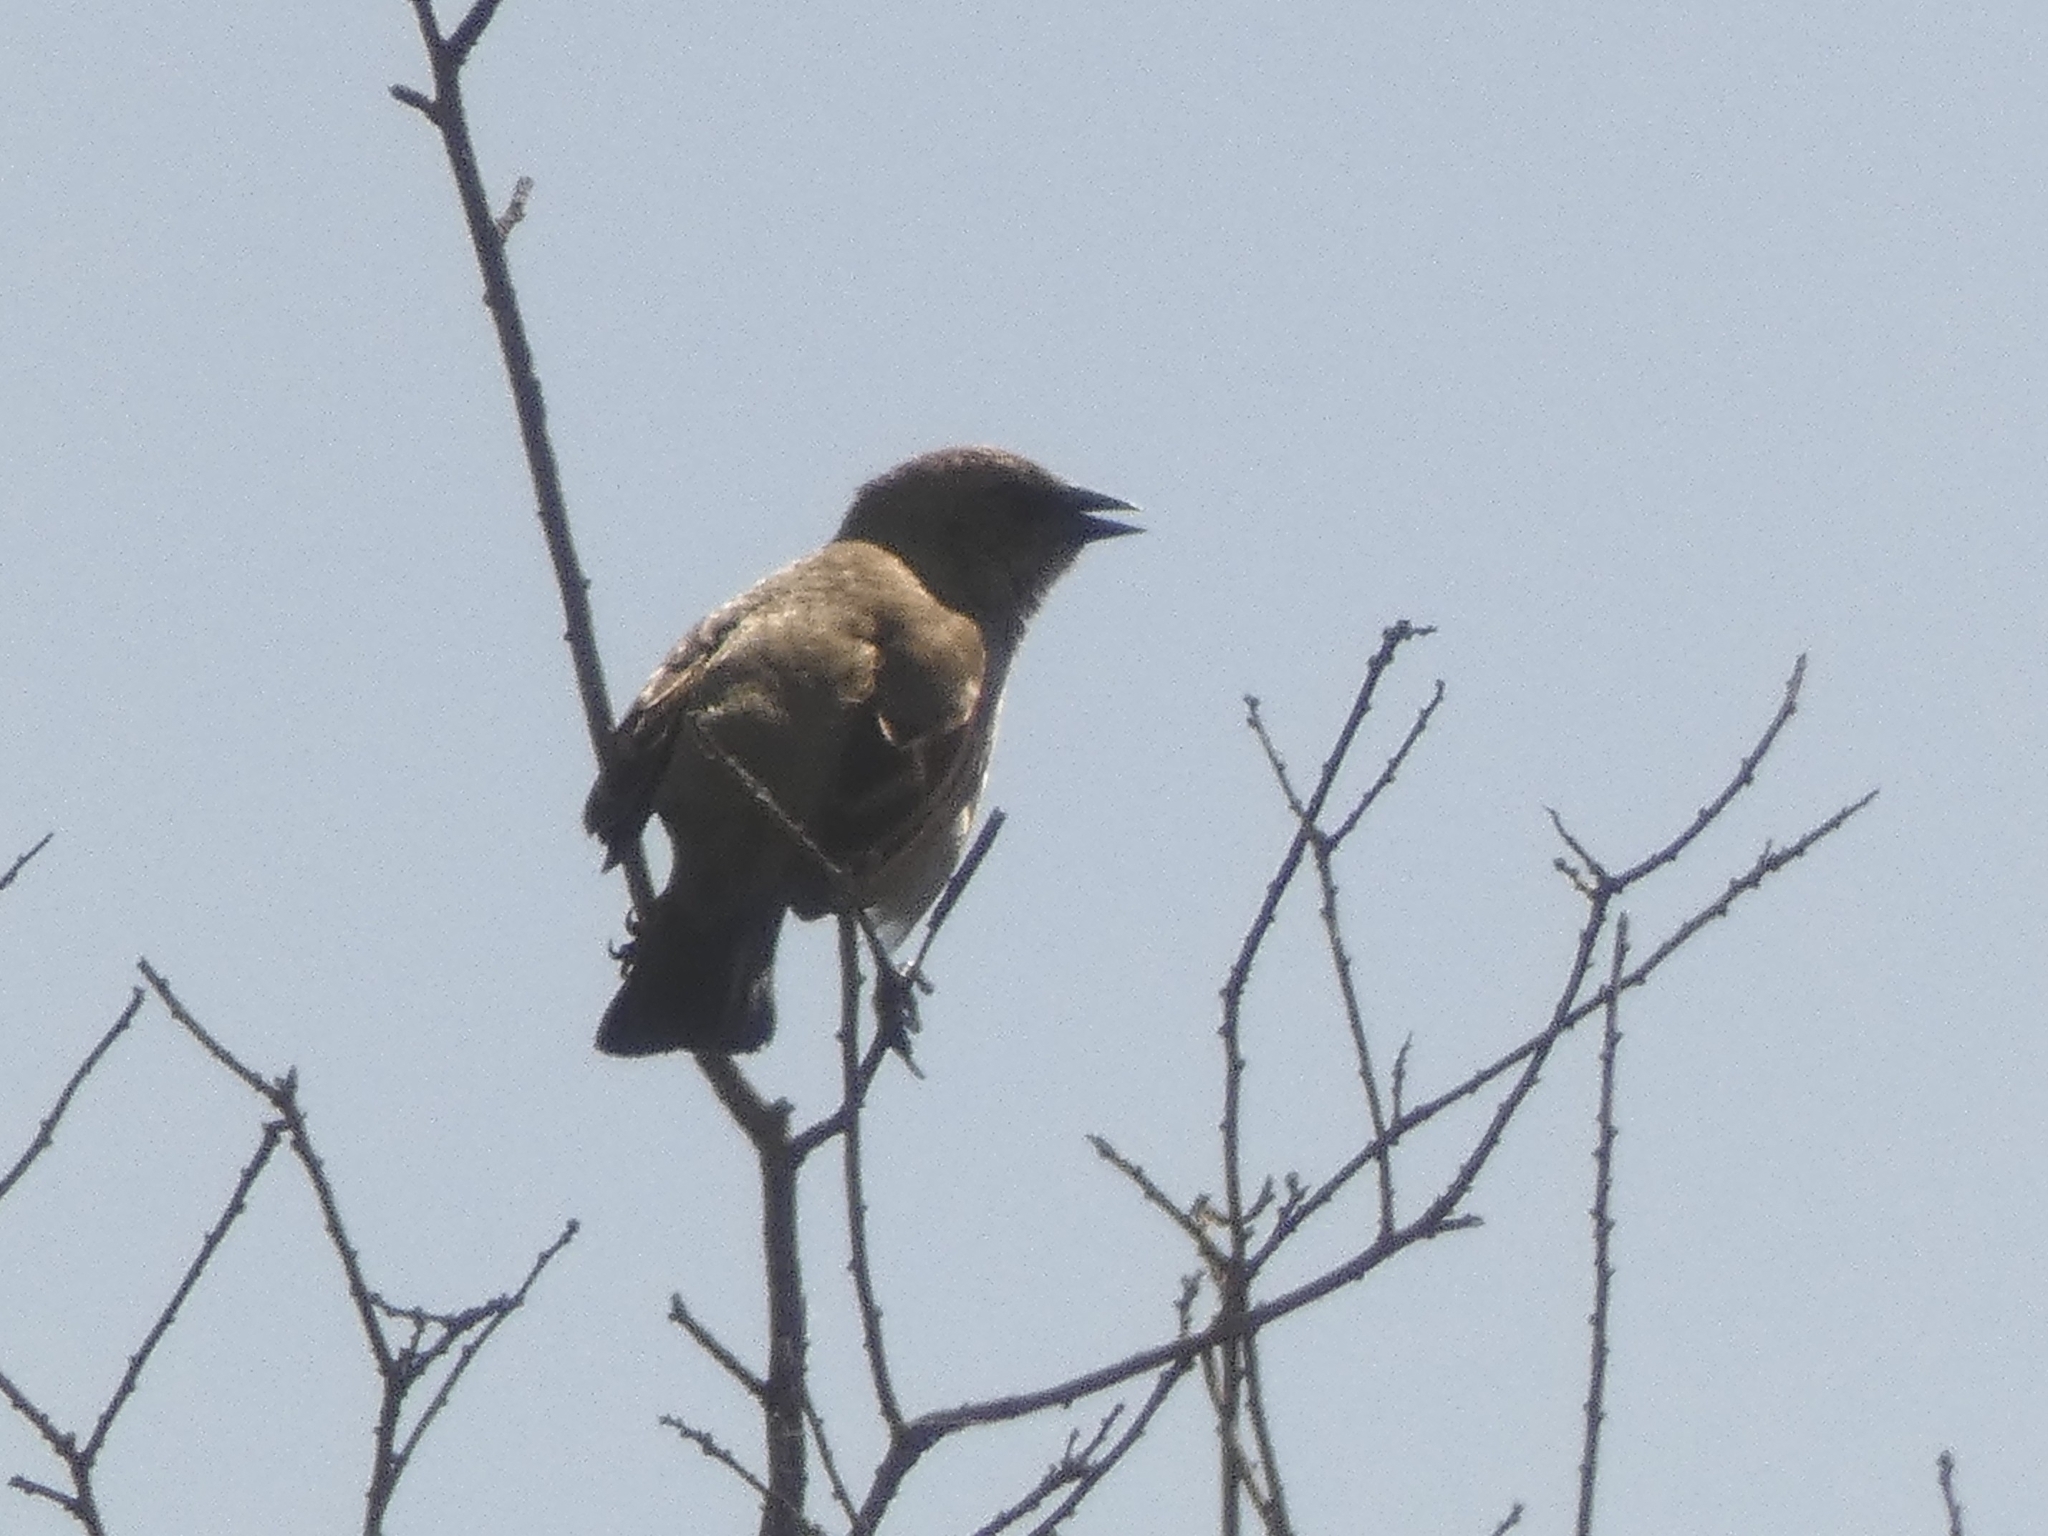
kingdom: Animalia
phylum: Chordata
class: Aves
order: Passeriformes
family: Icteridae
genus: Agelaioides
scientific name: Agelaioides badius
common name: Baywing
